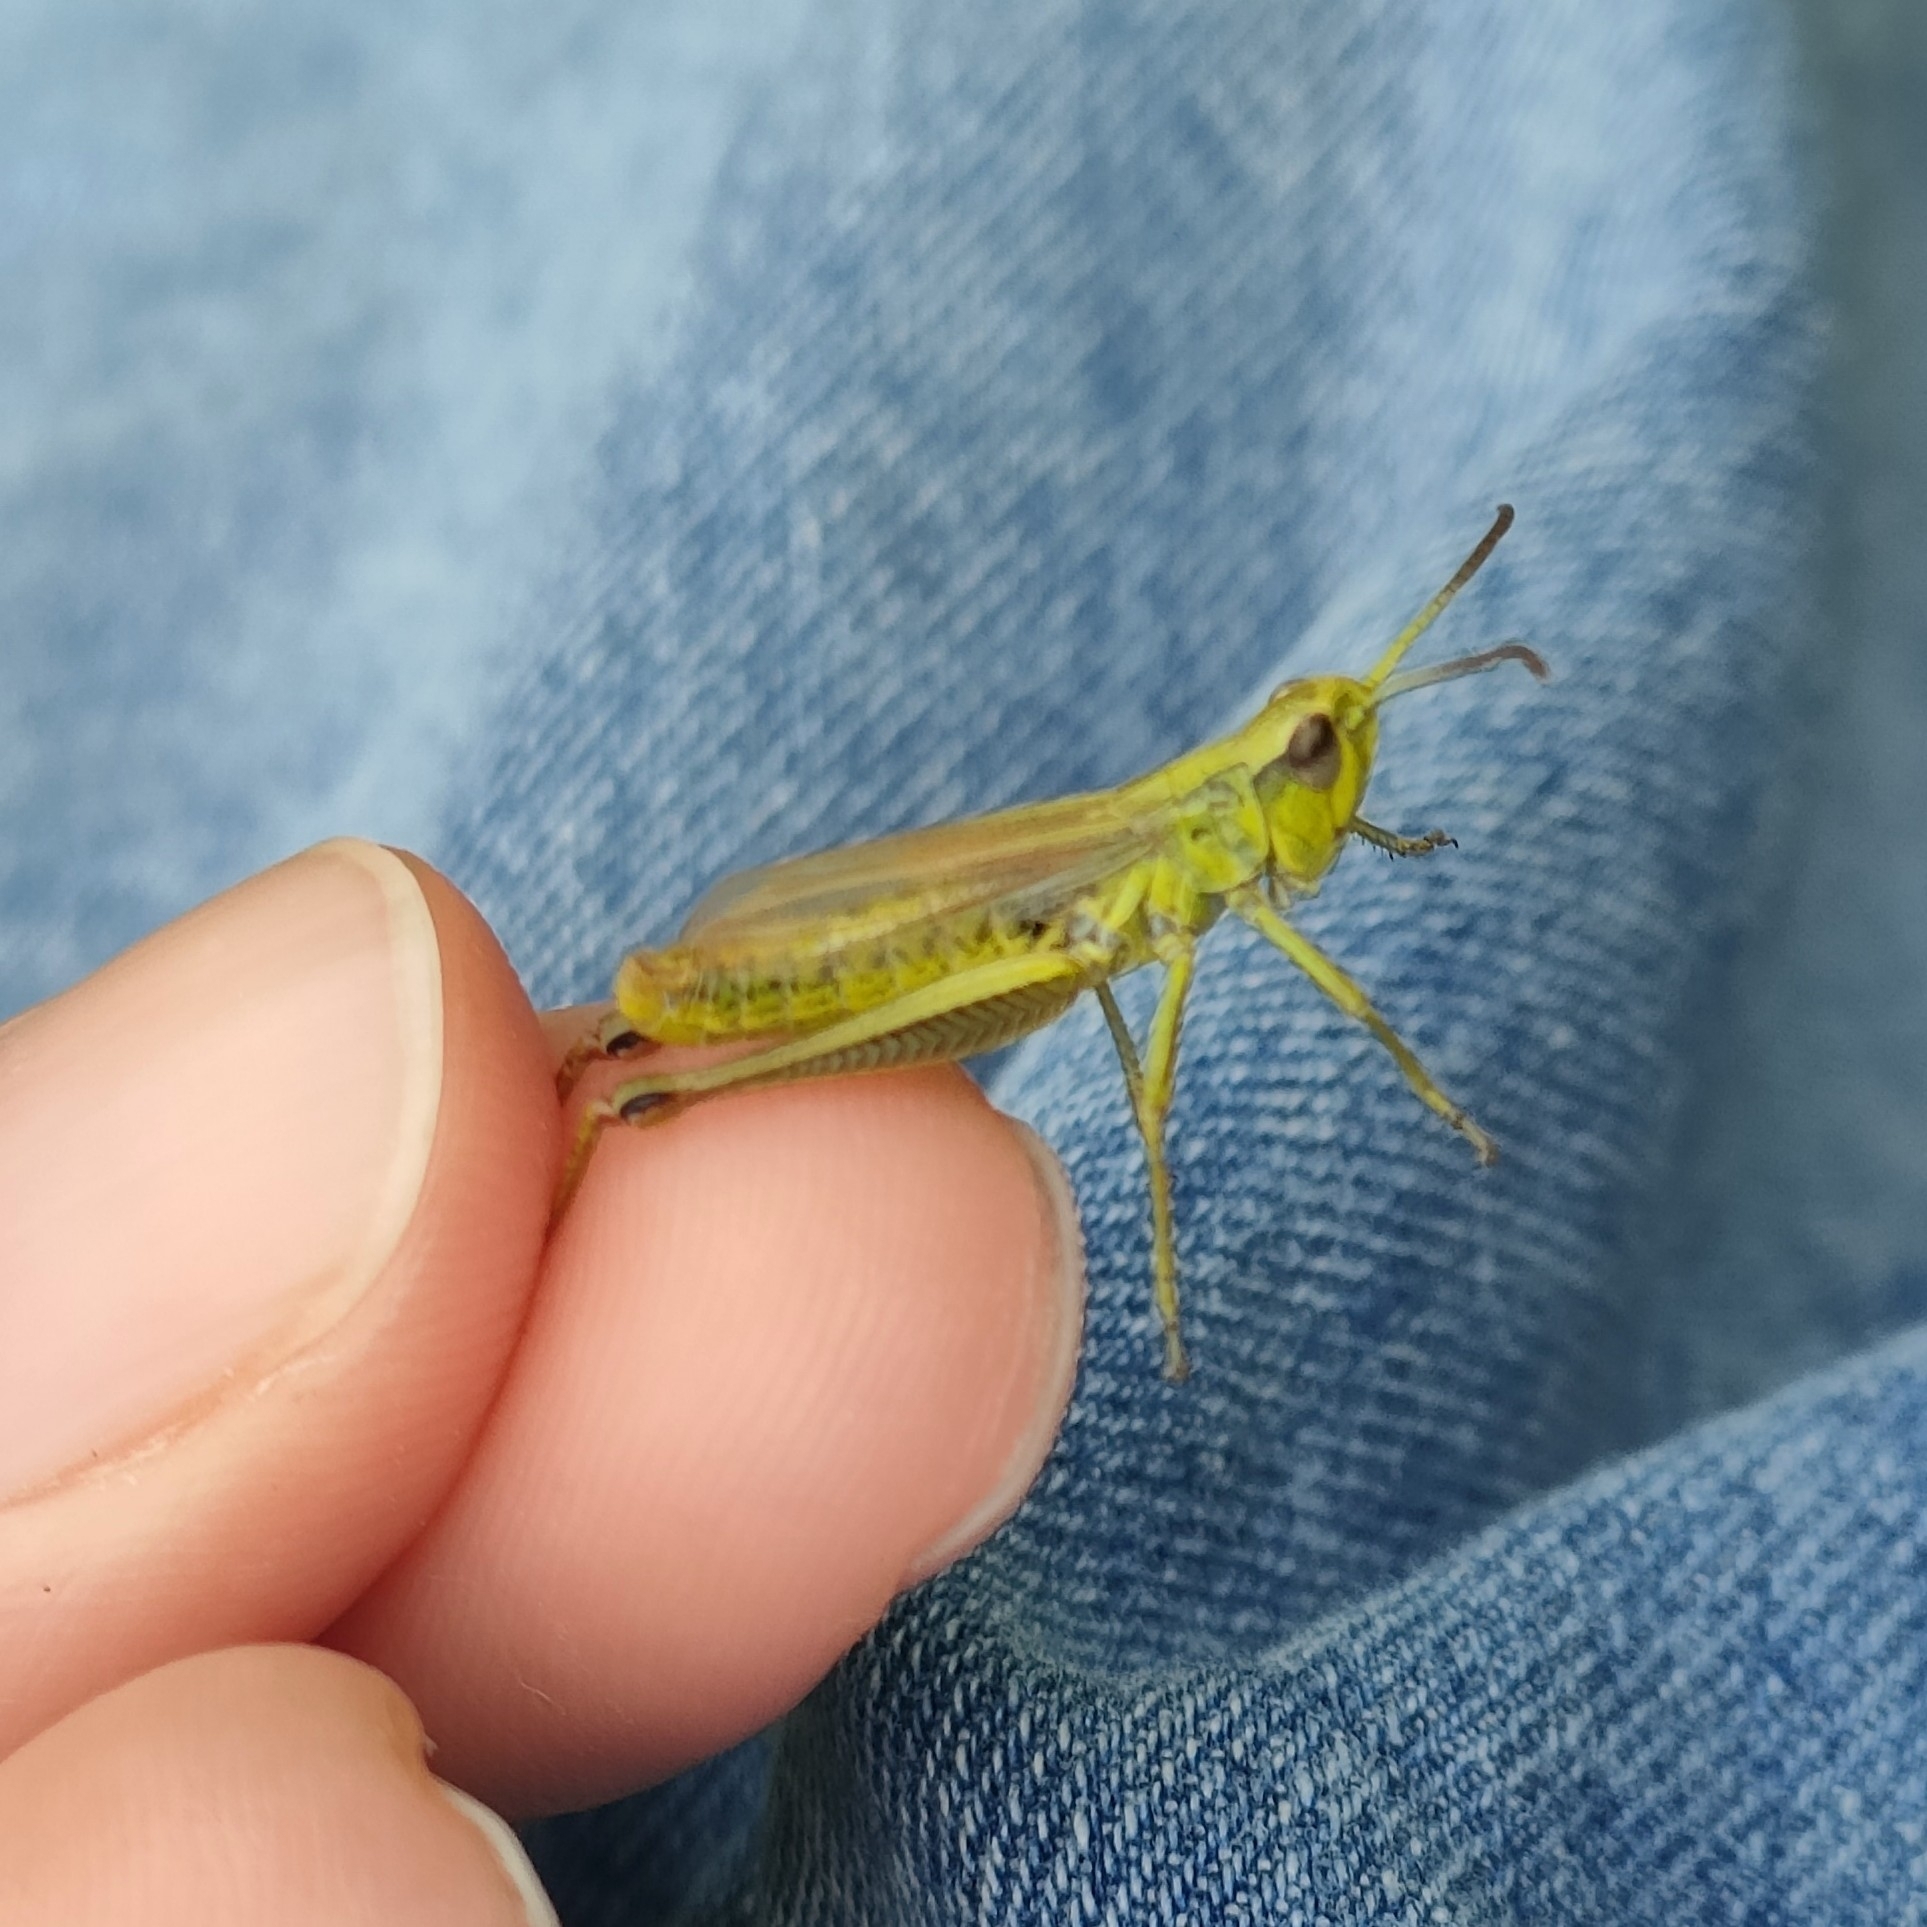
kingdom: Animalia
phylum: Arthropoda
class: Insecta
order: Orthoptera
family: Acrididae
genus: Pseudochorthippus
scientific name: Pseudochorthippus parallelus
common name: Meadow grasshopper
